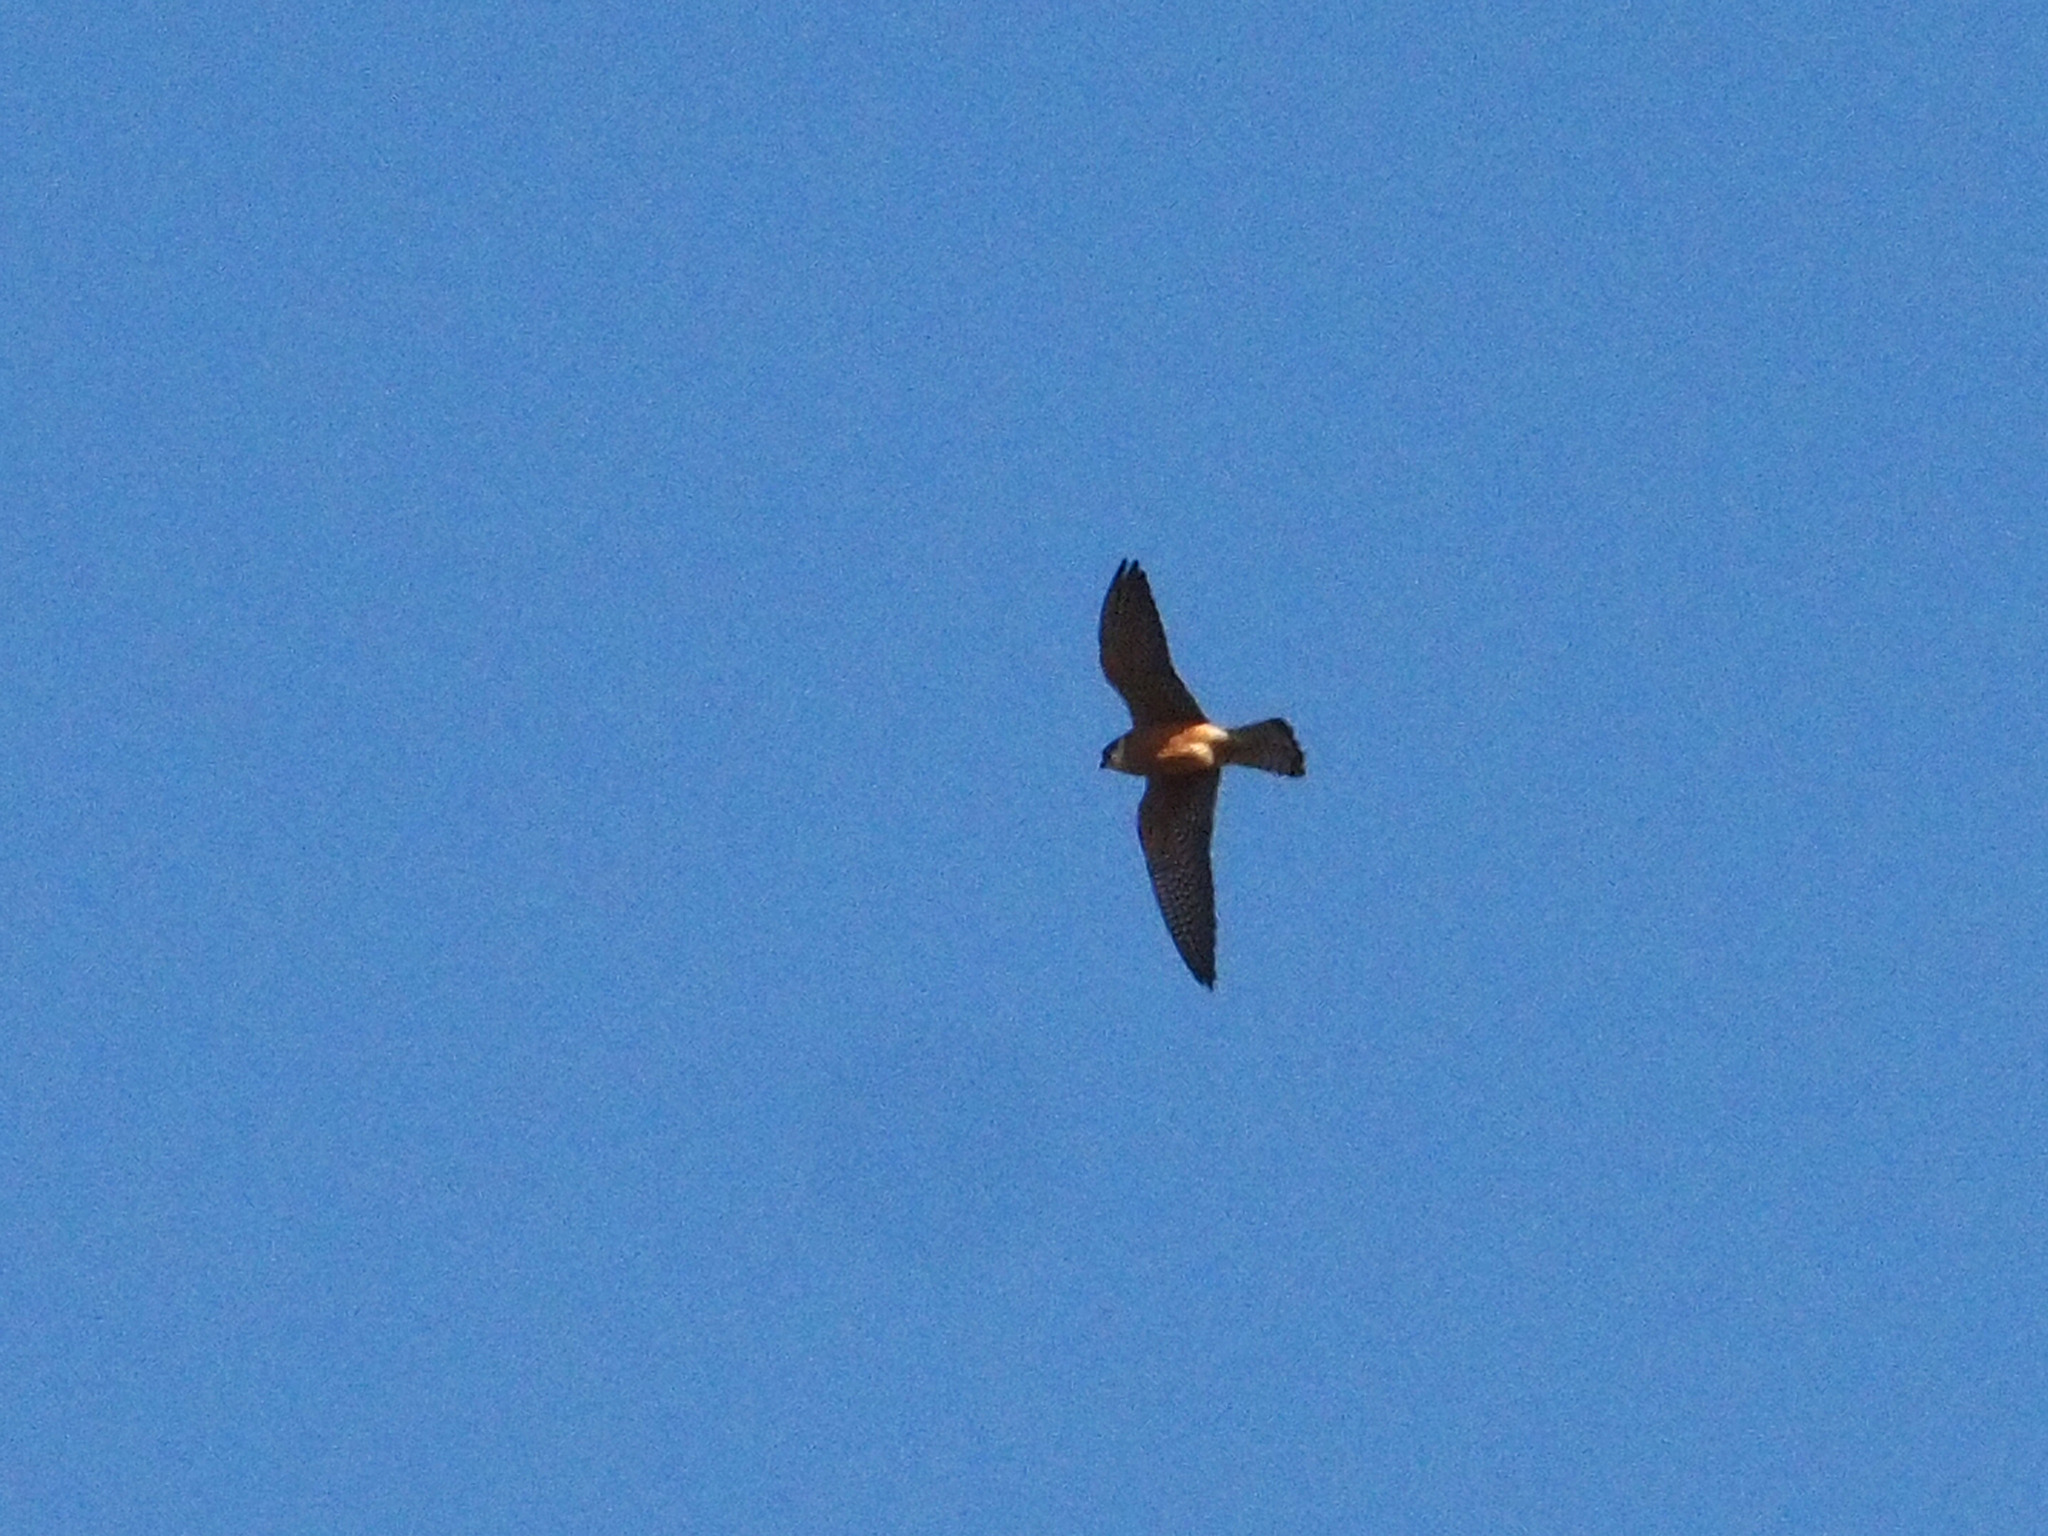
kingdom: Animalia
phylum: Chordata
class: Aves
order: Falconiformes
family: Falconidae
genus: Falco
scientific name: Falco vespertinus
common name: Red-footed falcon
